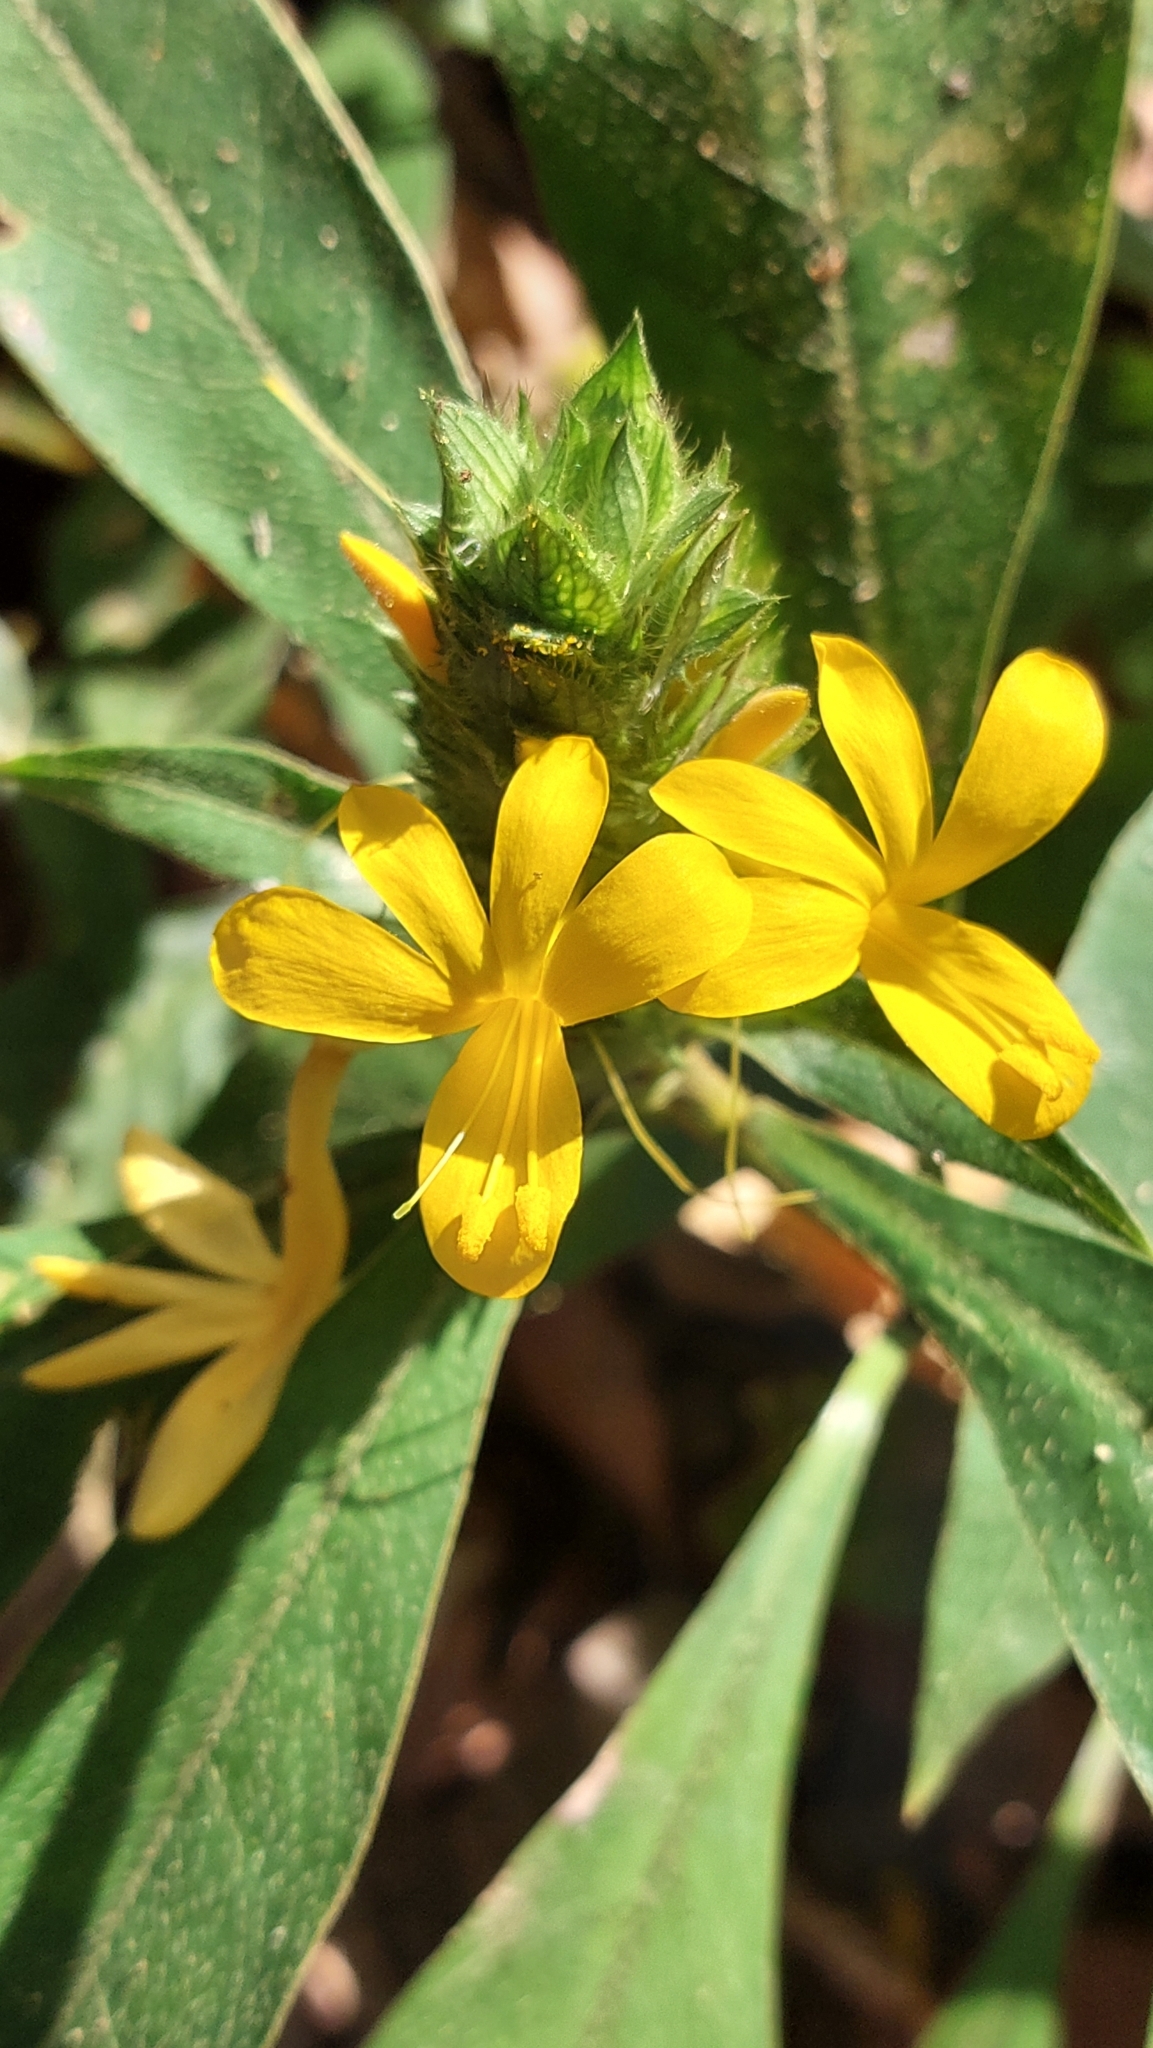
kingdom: Plantae
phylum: Tracheophyta
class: Magnoliopsida
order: Lamiales
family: Acanthaceae
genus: Barleria
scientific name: Barleria oenotheroides
